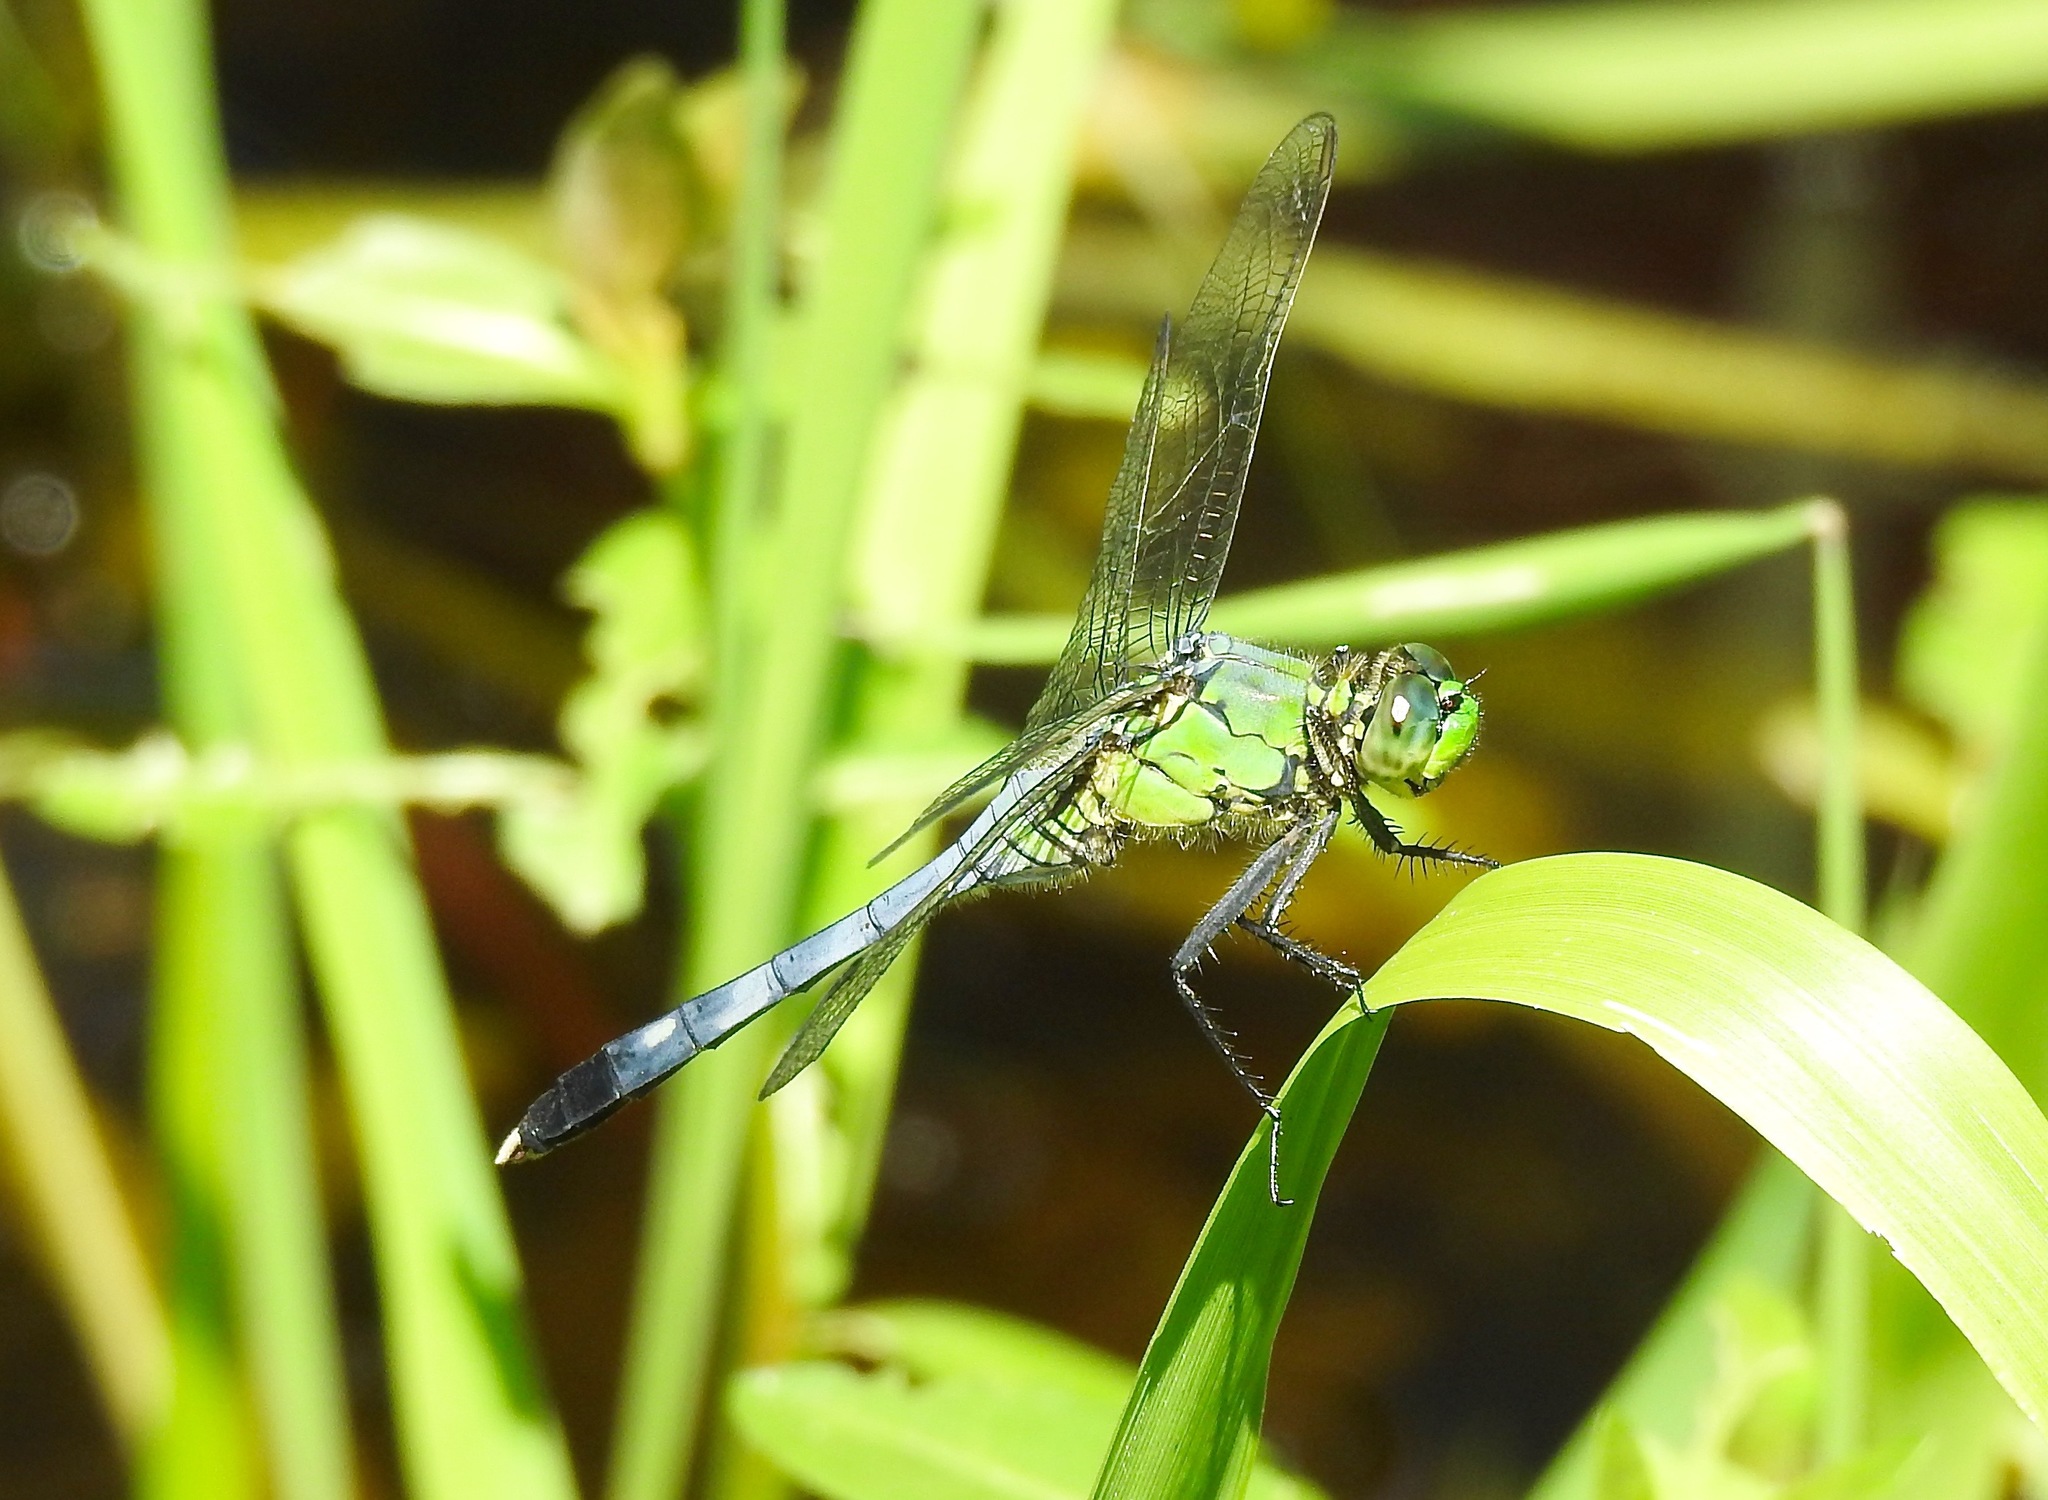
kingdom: Animalia
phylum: Arthropoda
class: Insecta
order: Odonata
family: Libellulidae
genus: Erythemis
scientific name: Erythemis simplicicollis
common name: Eastern pondhawk
